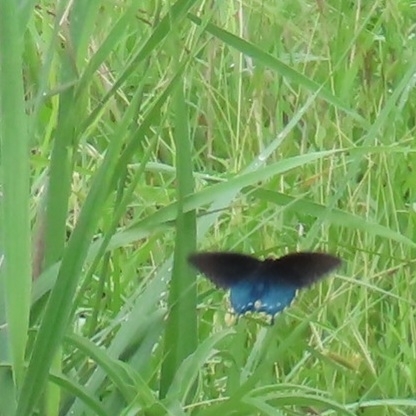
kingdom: Animalia
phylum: Arthropoda
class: Insecta
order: Lepidoptera
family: Papilionidae
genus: Battus
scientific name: Battus philenor
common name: Pipevine swallowtail
